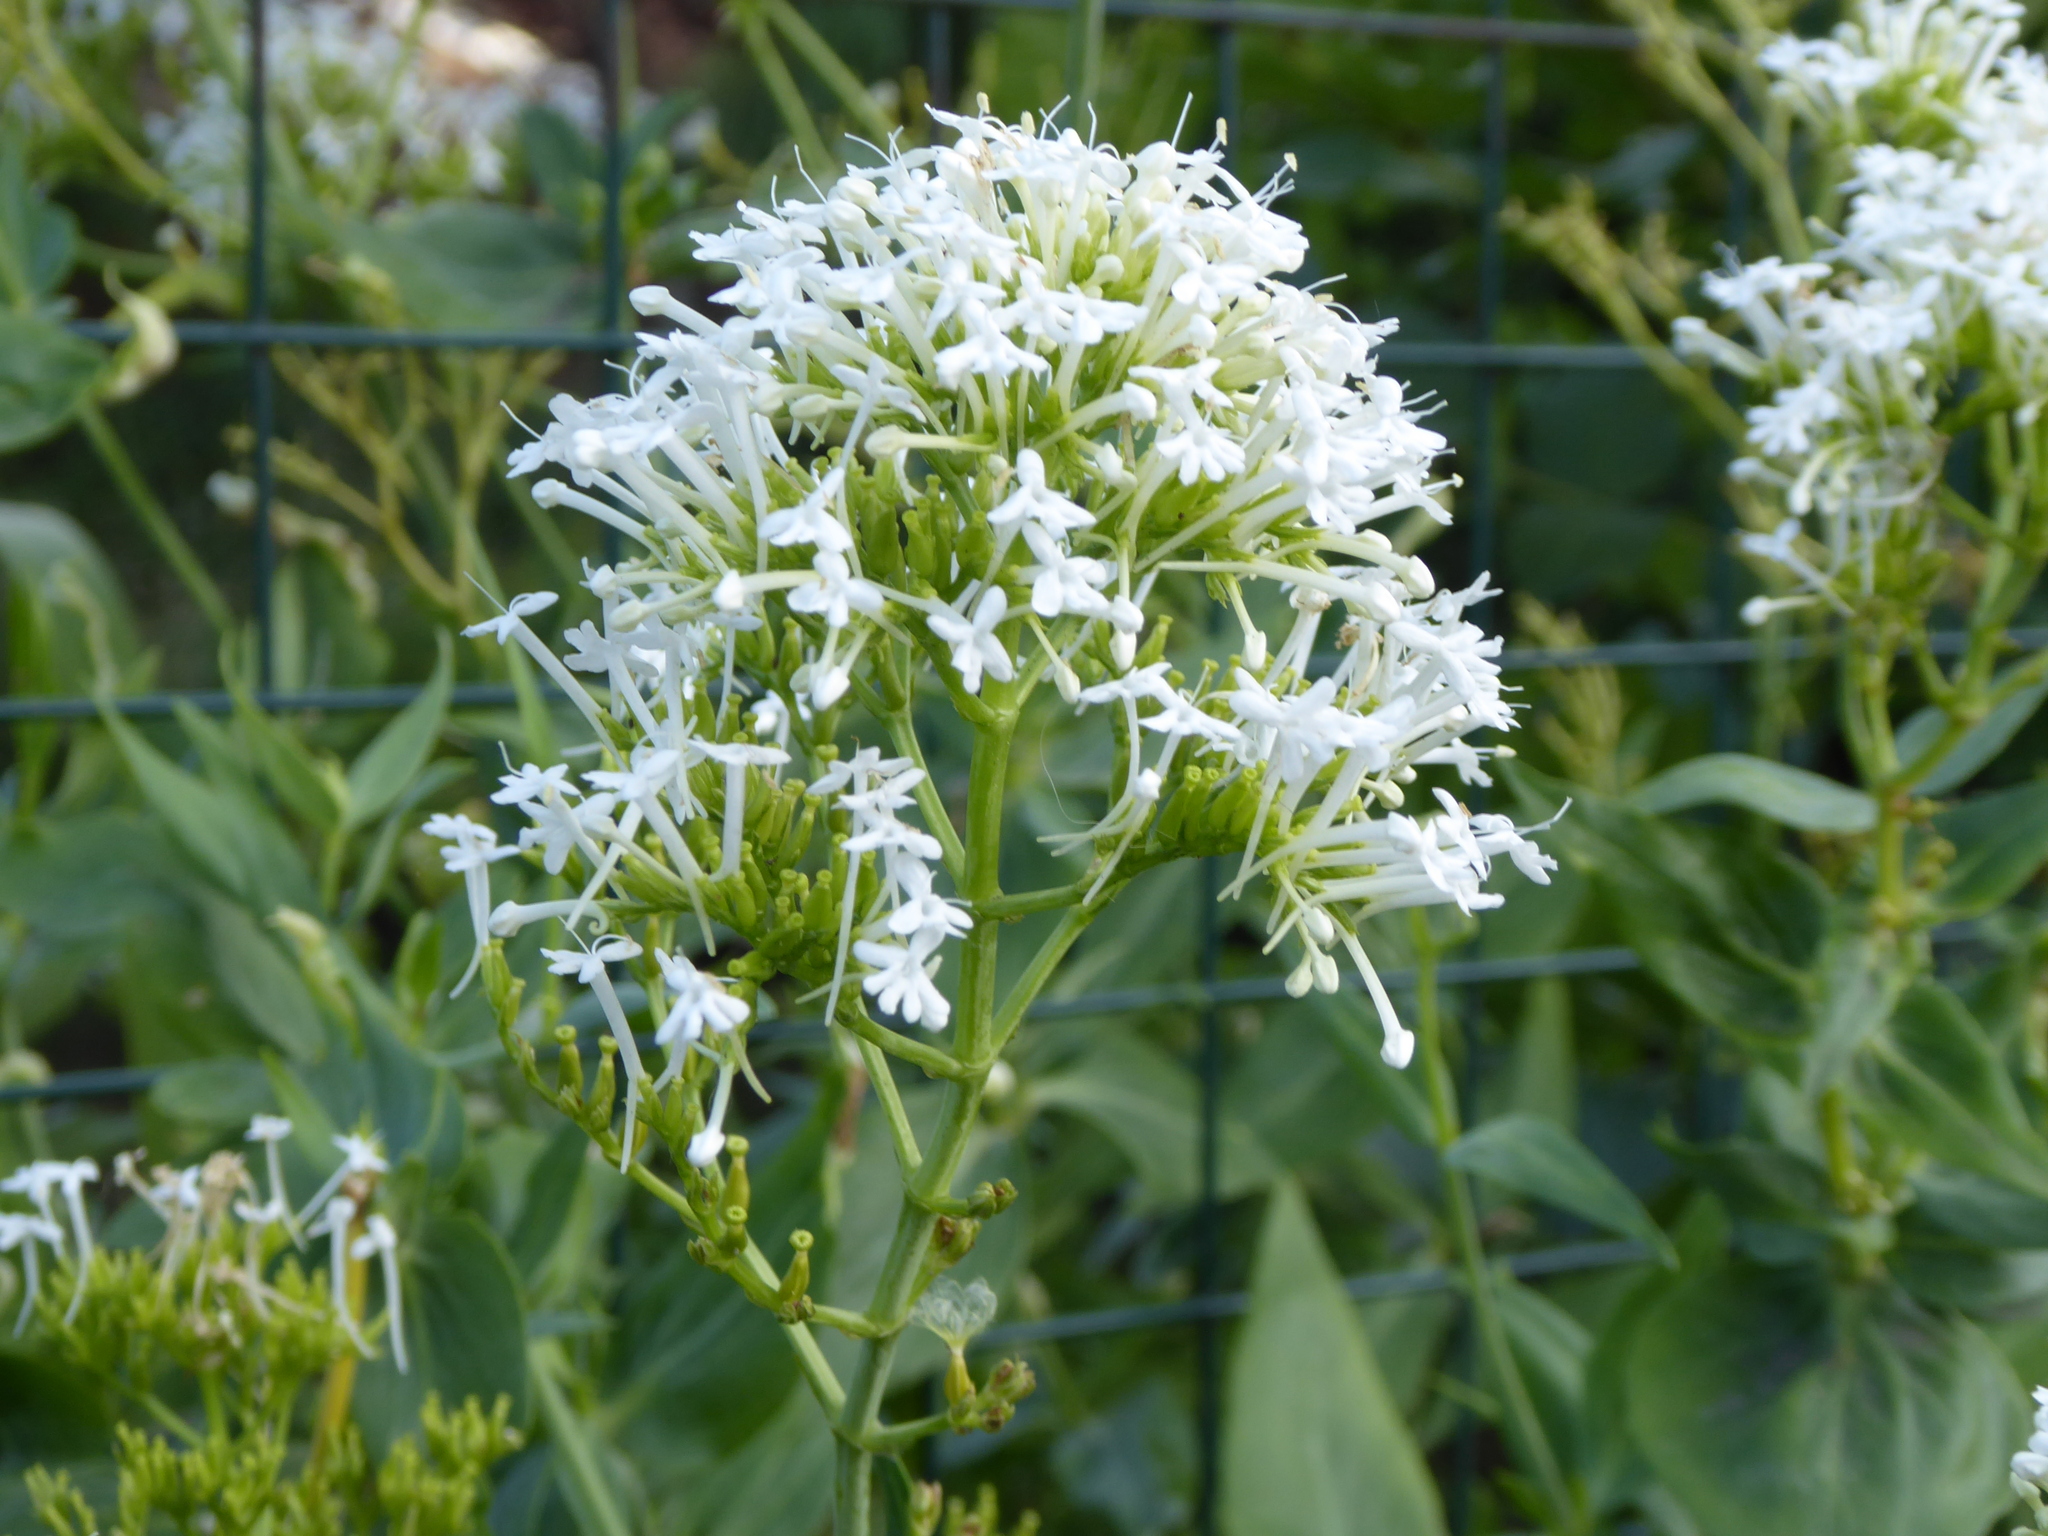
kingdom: Plantae
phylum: Tracheophyta
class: Magnoliopsida
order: Dipsacales
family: Caprifoliaceae
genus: Centranthus
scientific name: Centranthus ruber
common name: Red valerian
